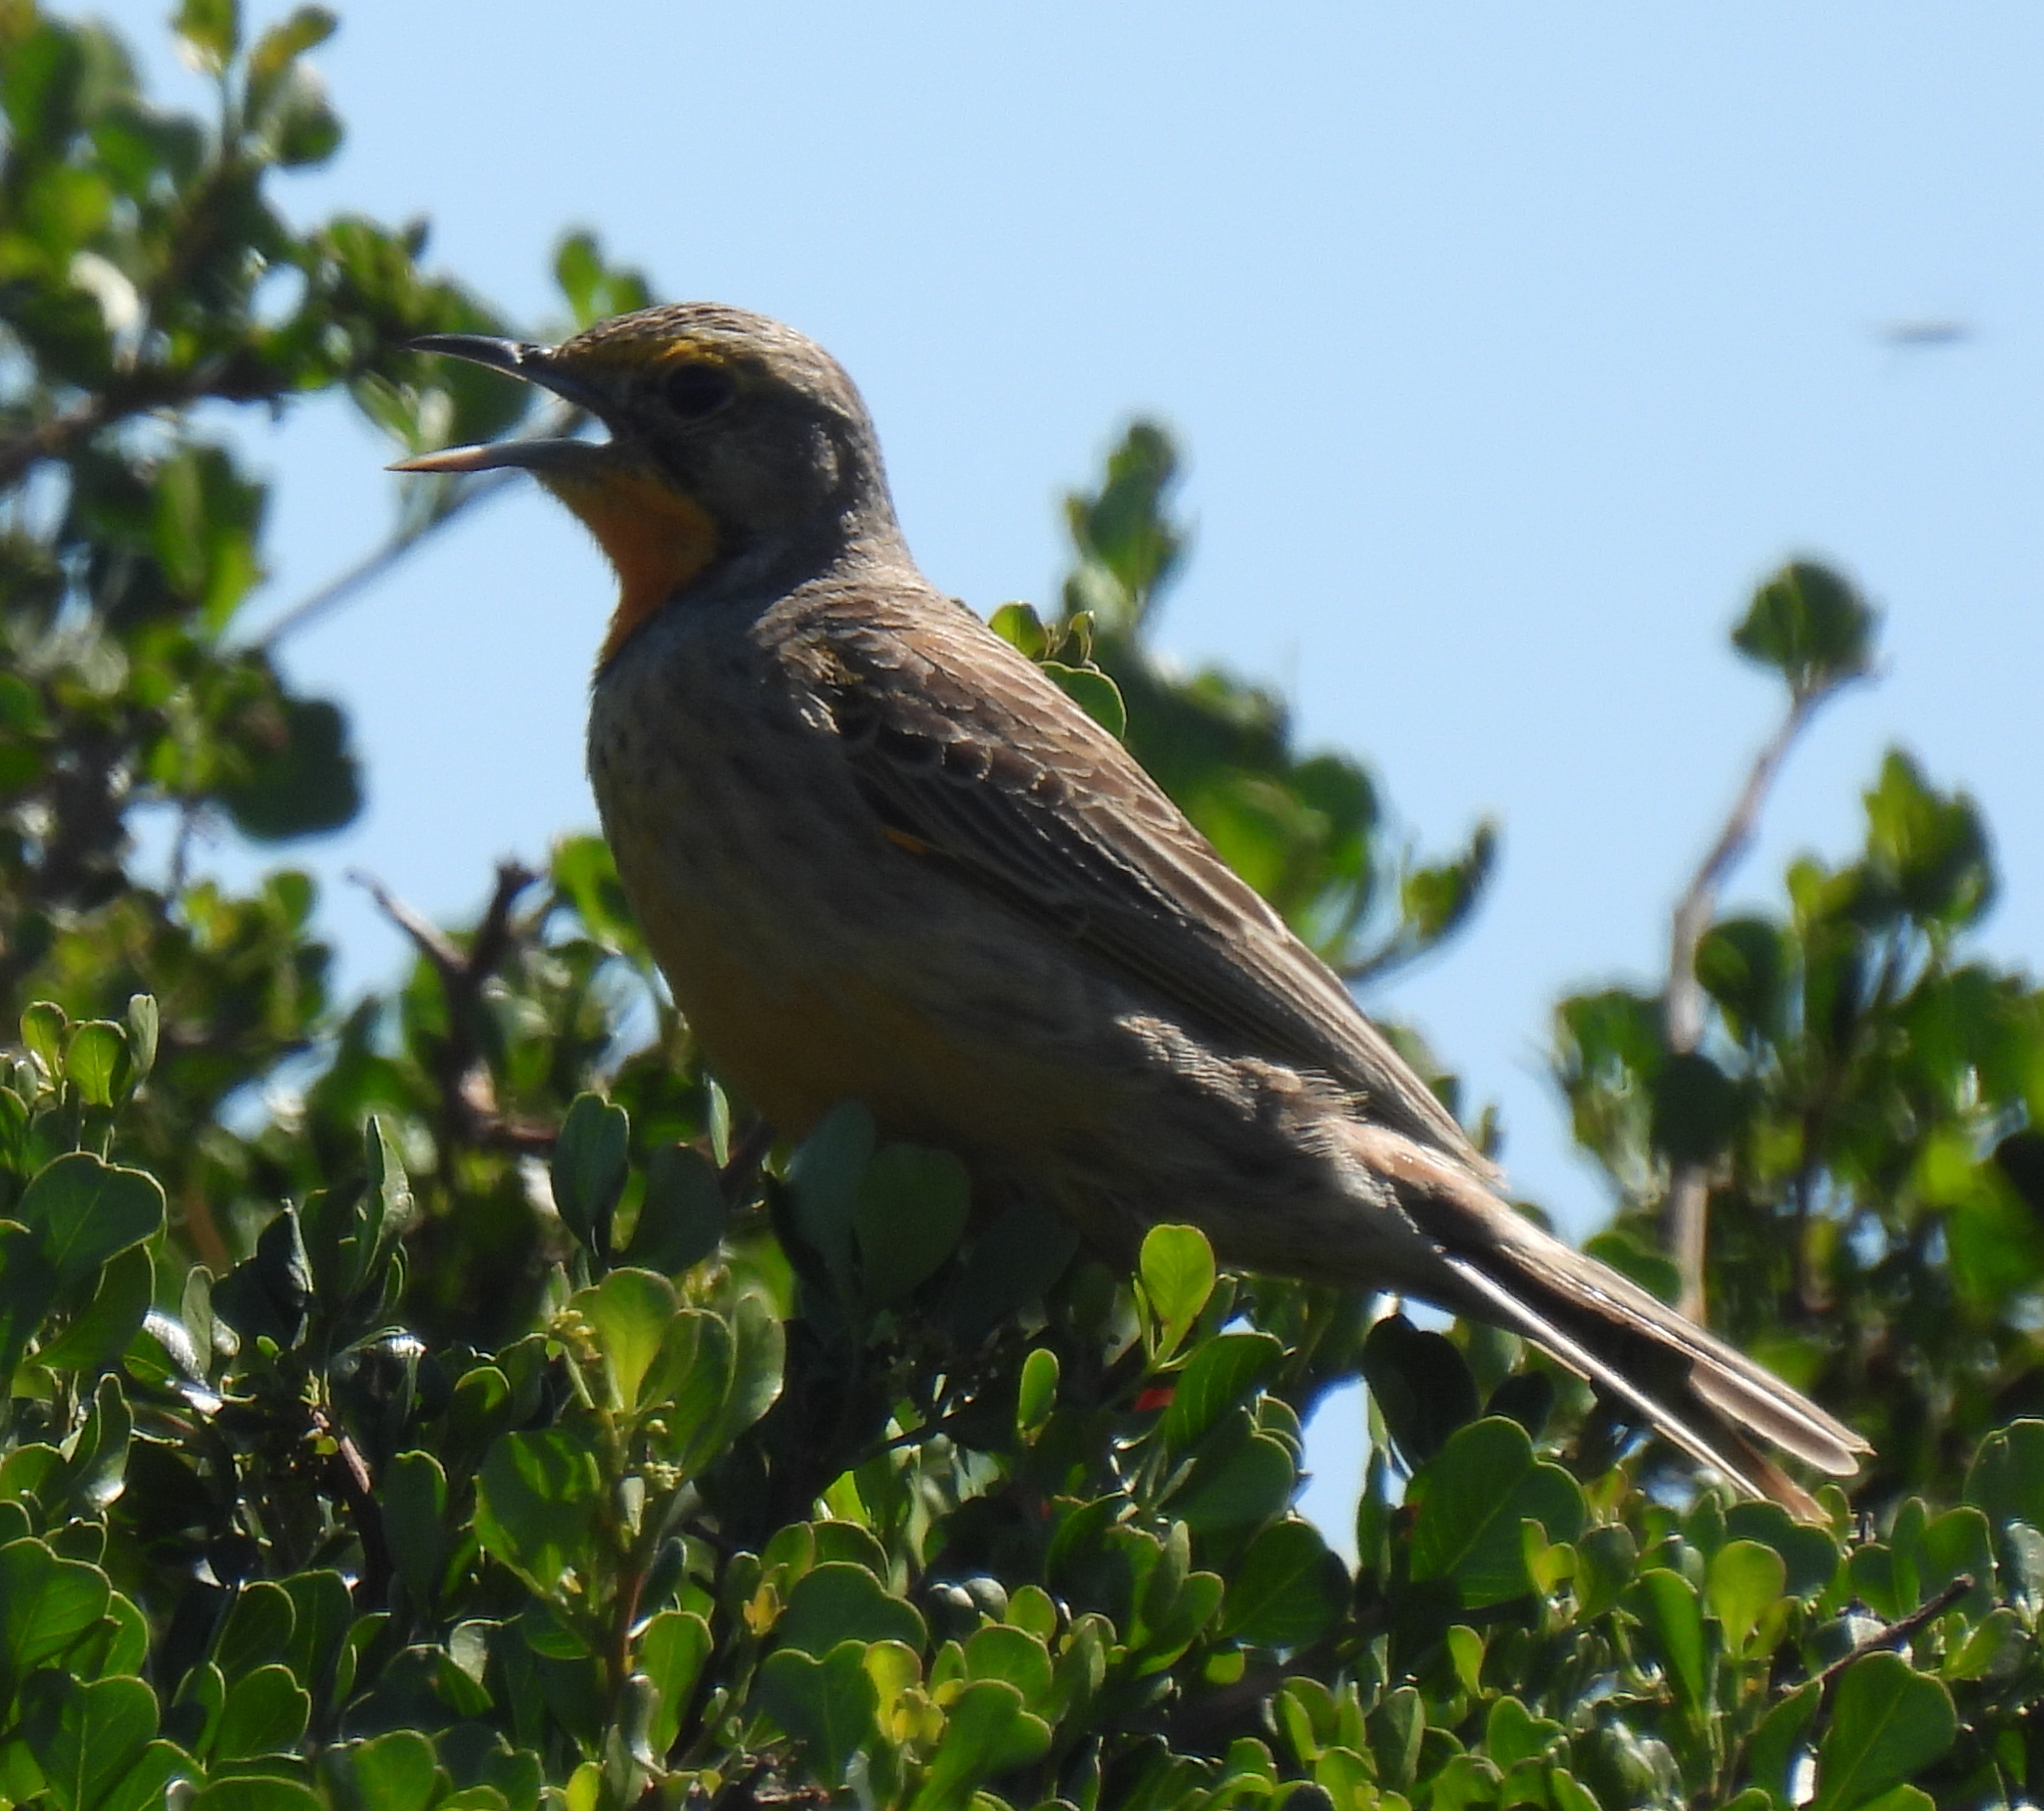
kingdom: Animalia
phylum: Chordata
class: Aves
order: Passeriformes
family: Motacillidae
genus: Macronyx
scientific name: Macronyx capensis
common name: Cape longclaw
